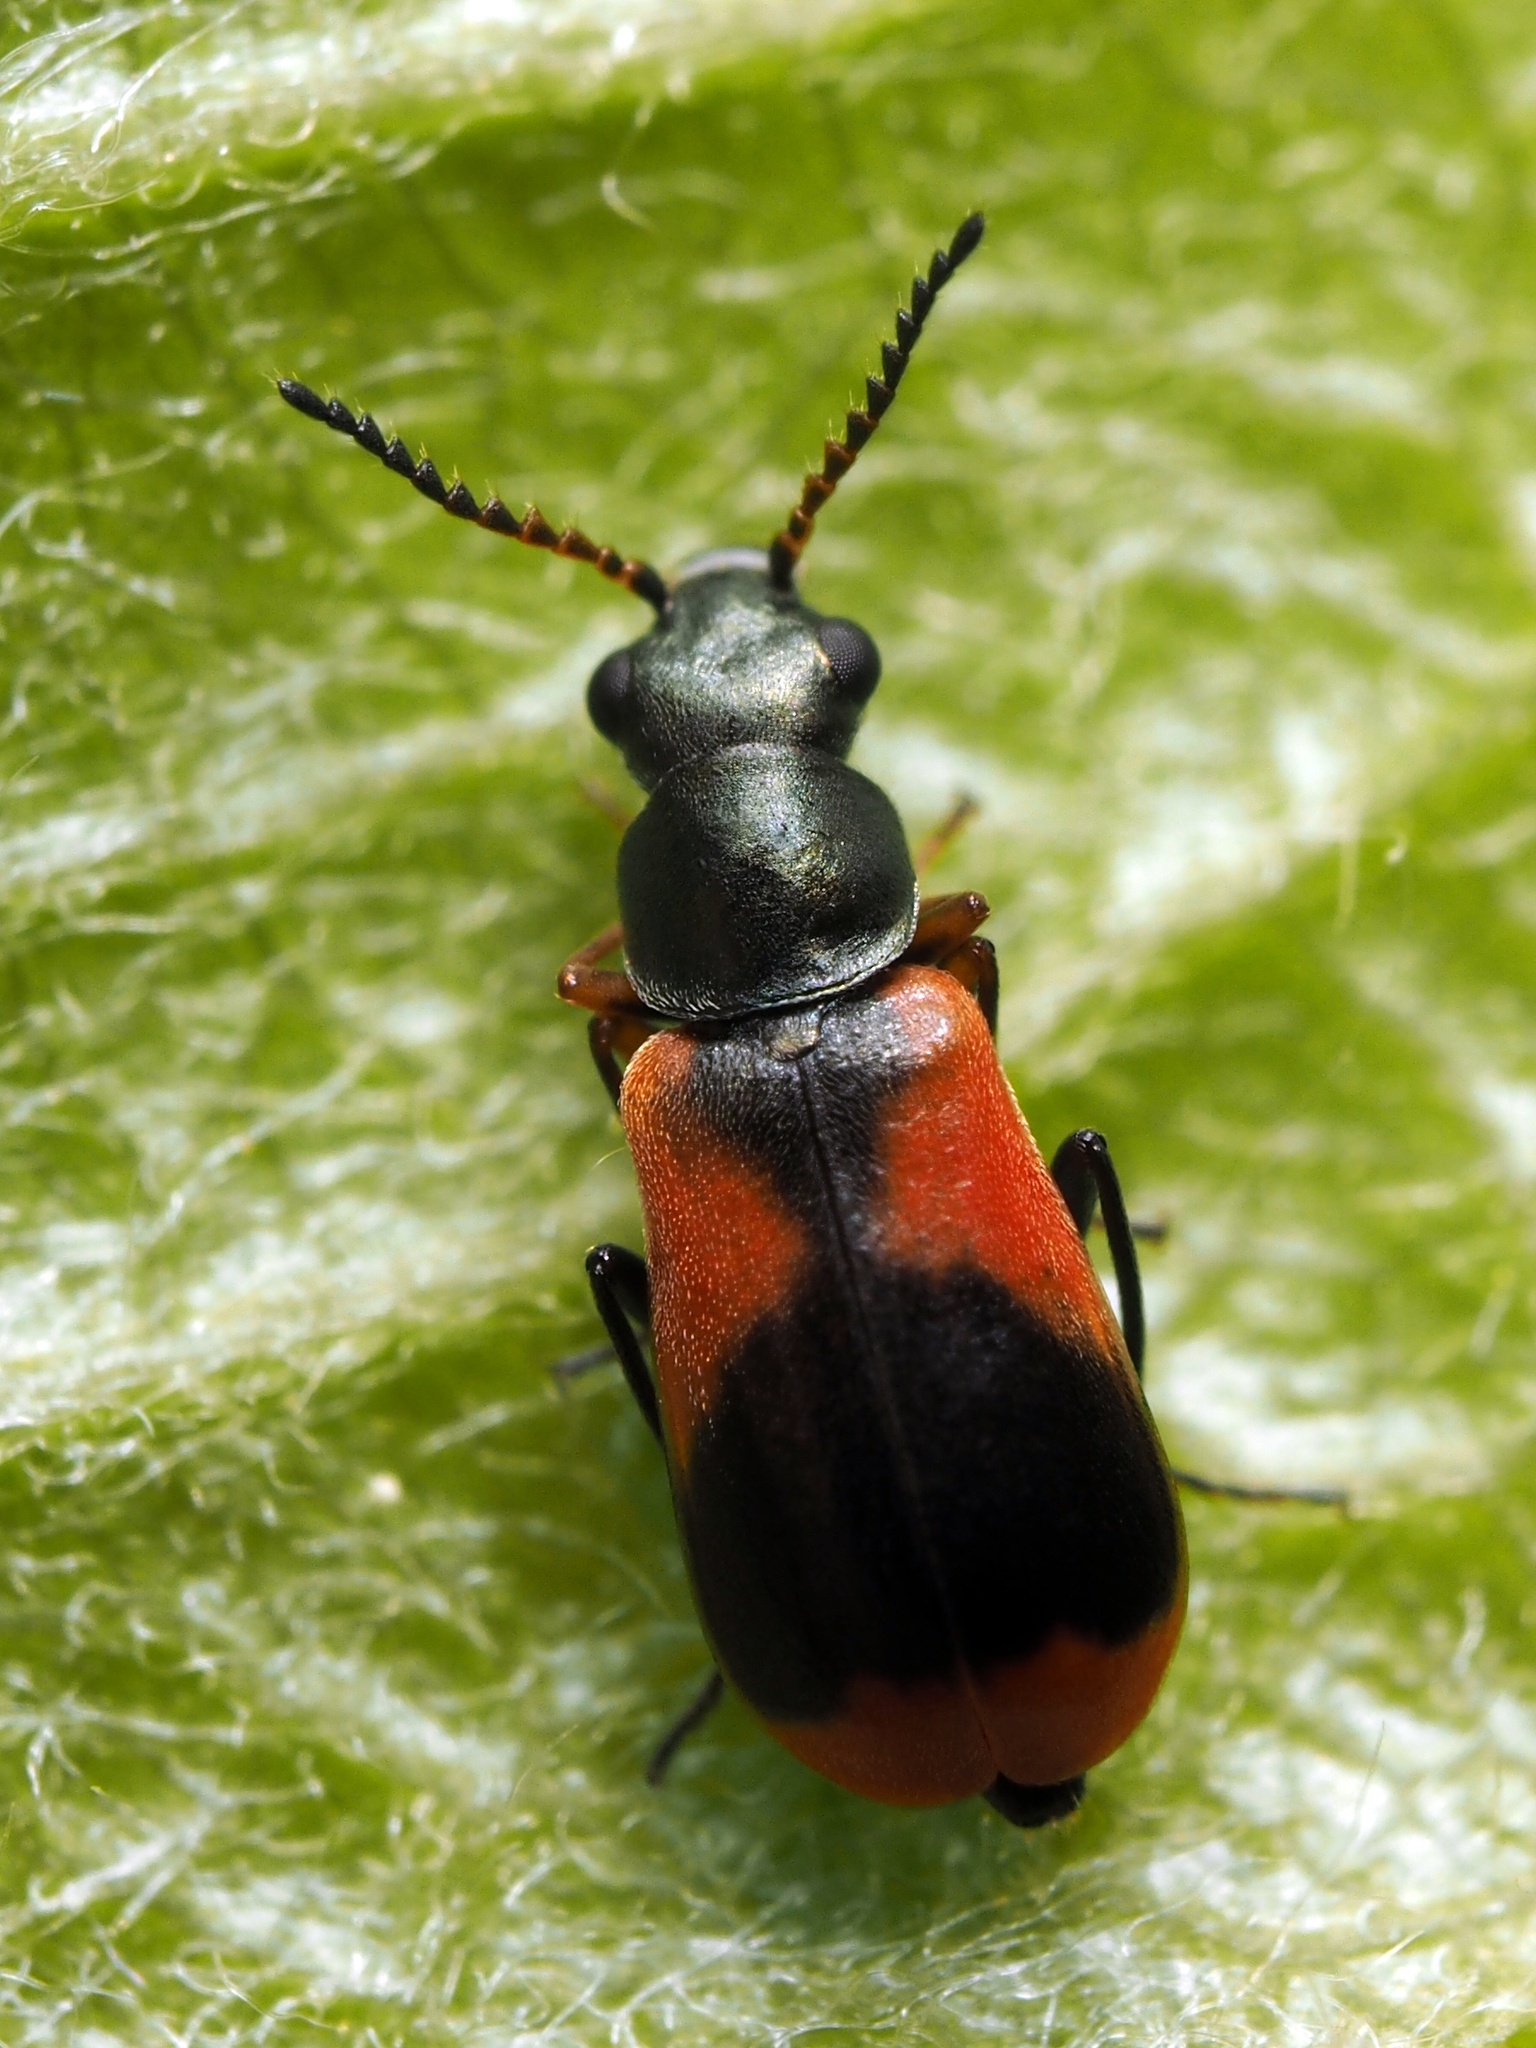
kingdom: Animalia
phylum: Arthropoda
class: Insecta
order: Coleoptera
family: Melyridae
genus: Anthocomus
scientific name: Anthocomus equestris
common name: Black-banded soft-winged flower beetle
